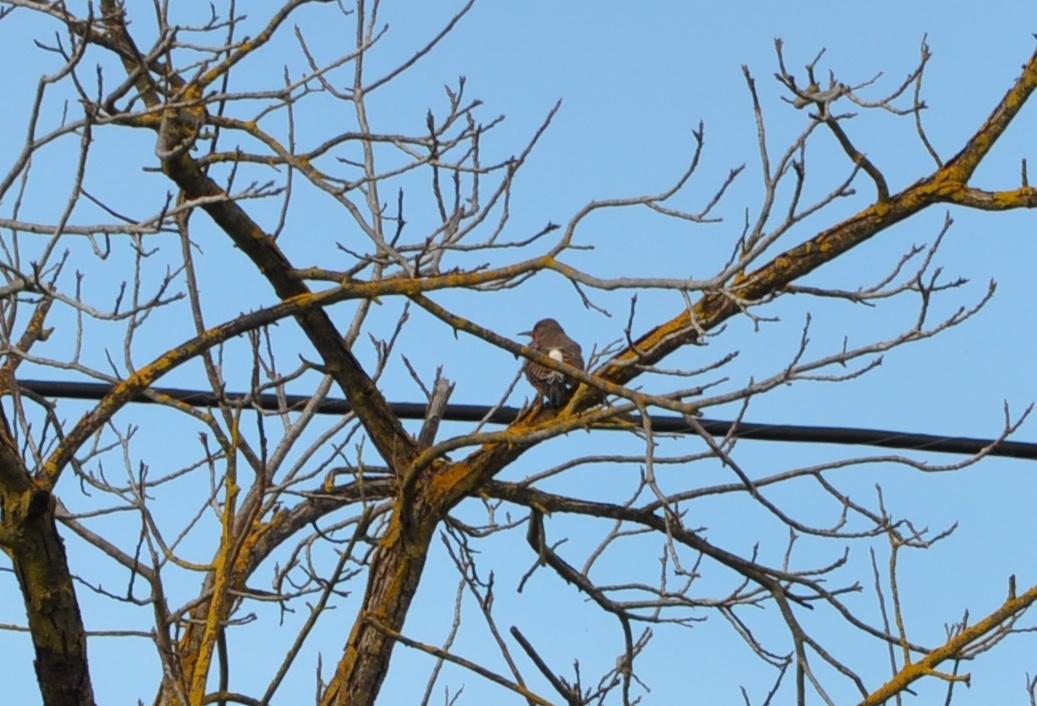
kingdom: Animalia
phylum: Chordata
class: Aves
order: Piciformes
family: Picidae
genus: Colaptes
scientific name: Colaptes auratus
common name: Northern flicker
